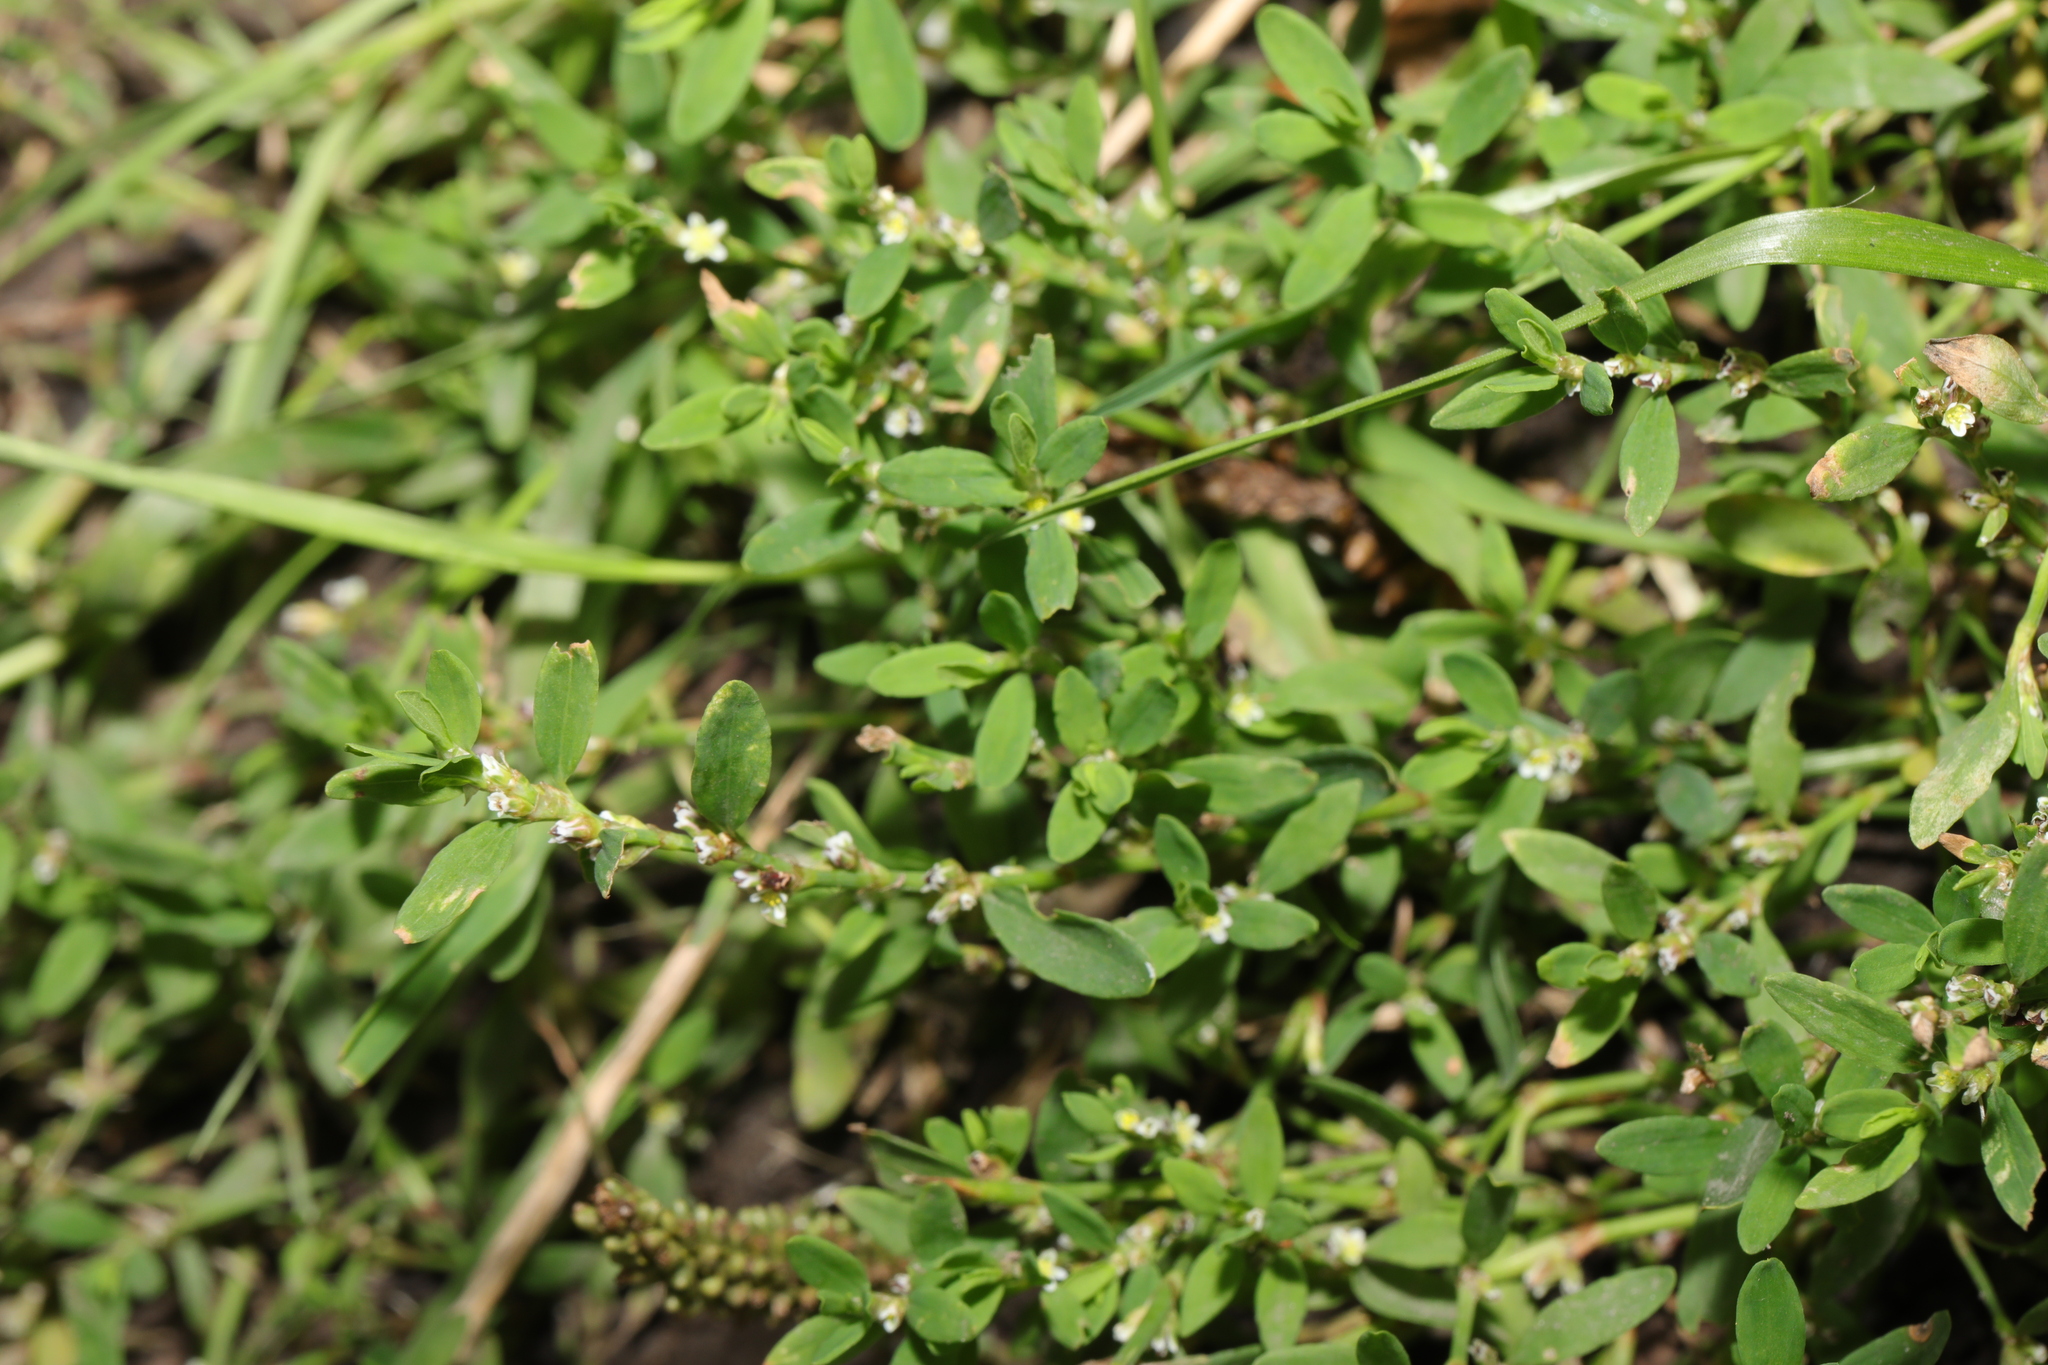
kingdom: Plantae
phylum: Tracheophyta
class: Magnoliopsida
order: Caryophyllales
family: Polygonaceae
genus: Polygonum
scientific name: Polygonum aviculare
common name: Prostrate knotweed
